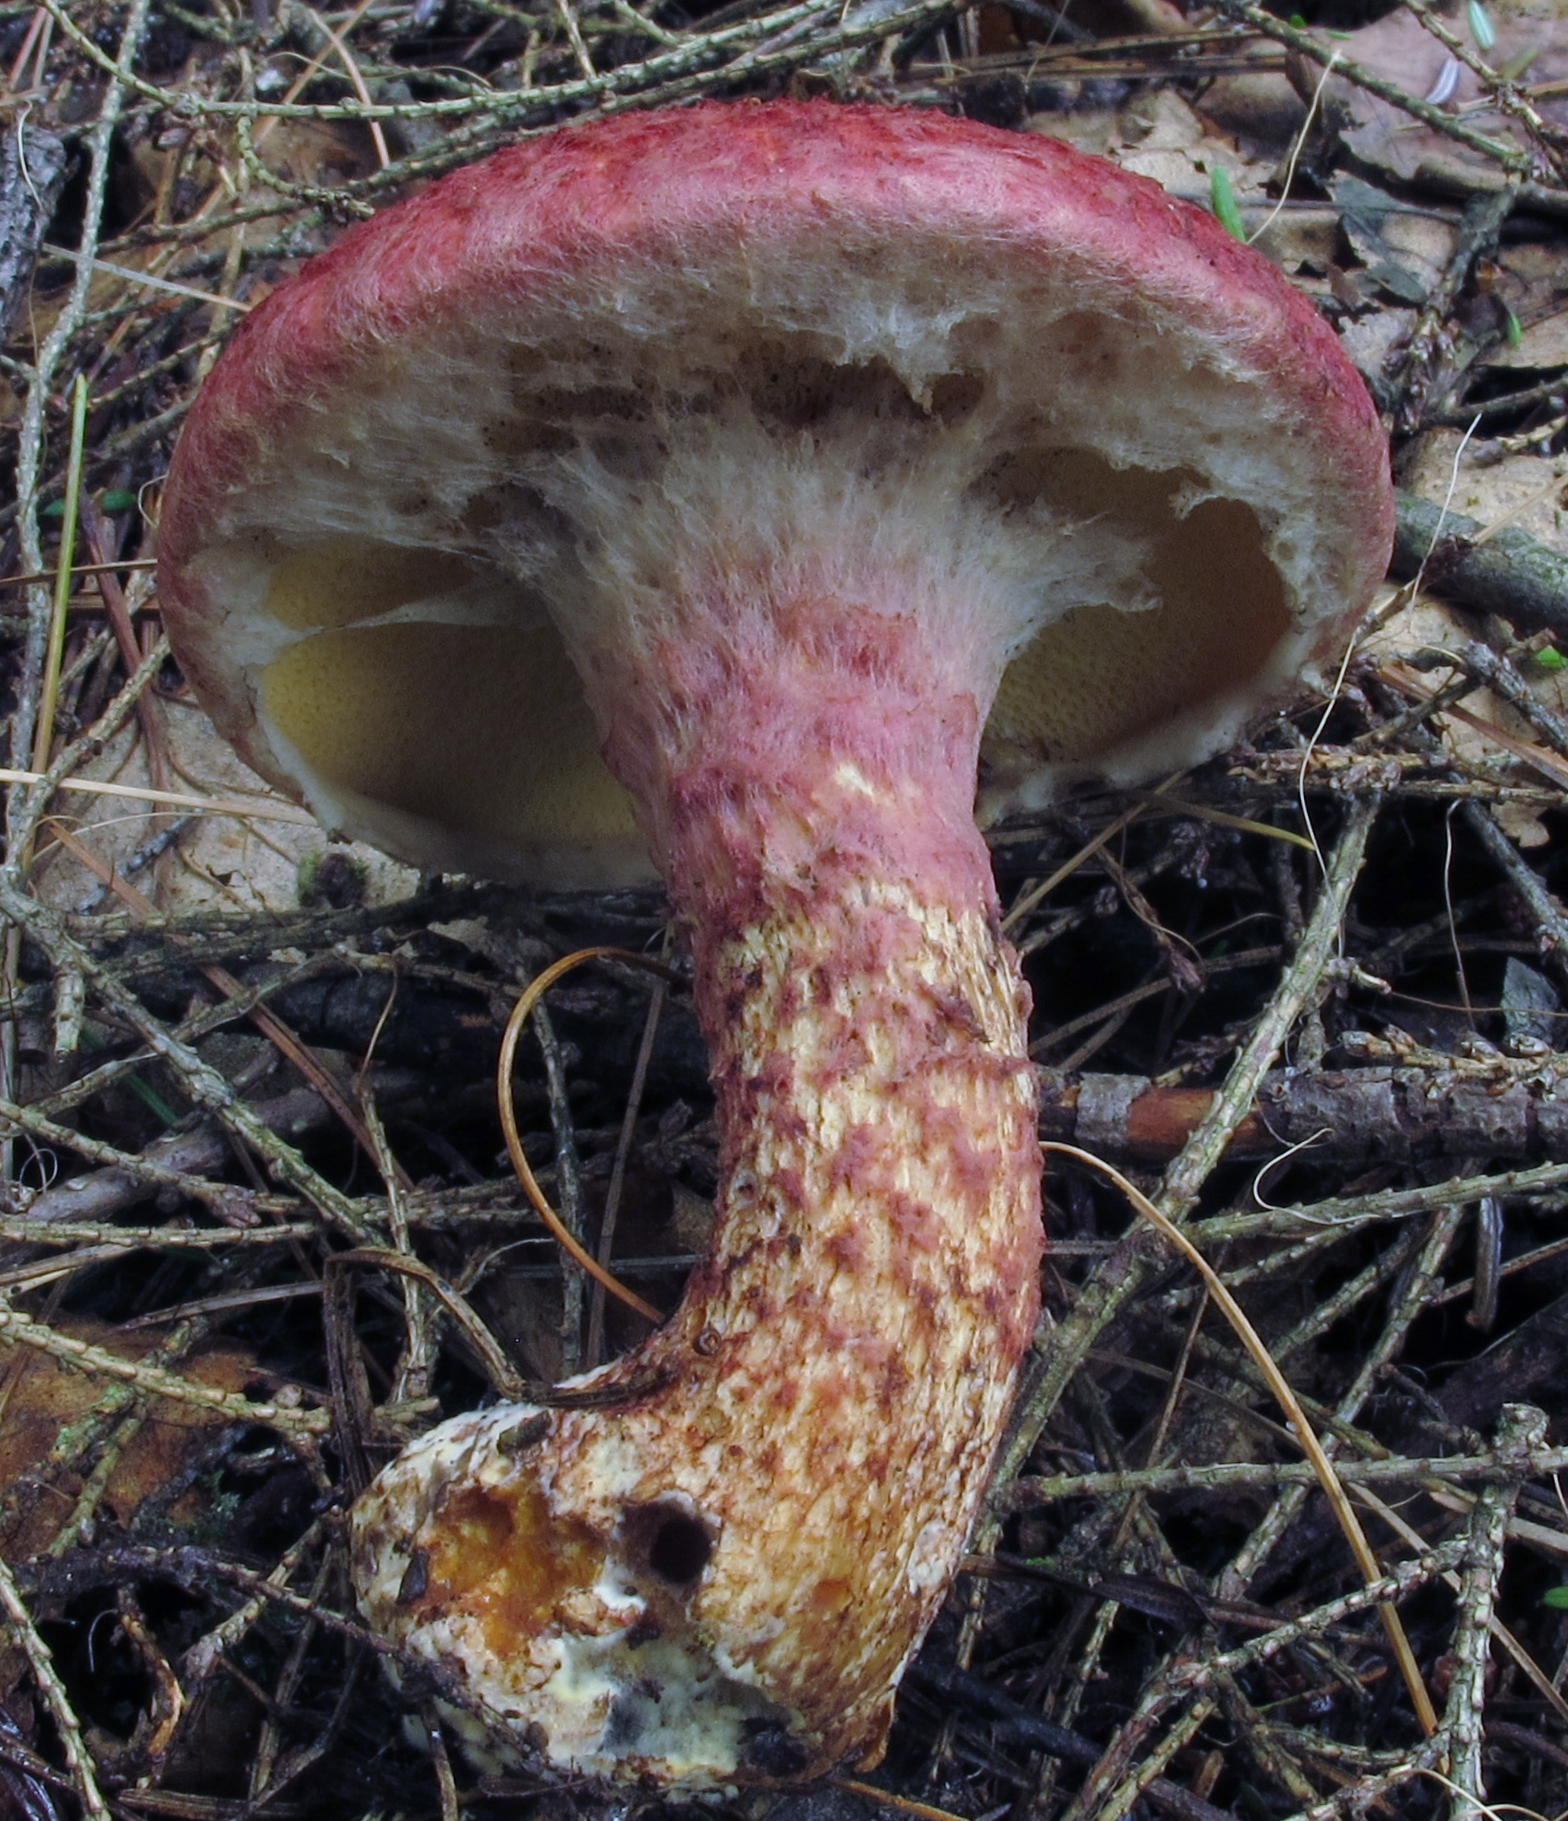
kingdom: Fungi
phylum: Basidiomycota
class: Agaricomycetes
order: Boletales
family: Suillaceae
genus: Suillus
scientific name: Suillus spraguei
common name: Painted suillus
